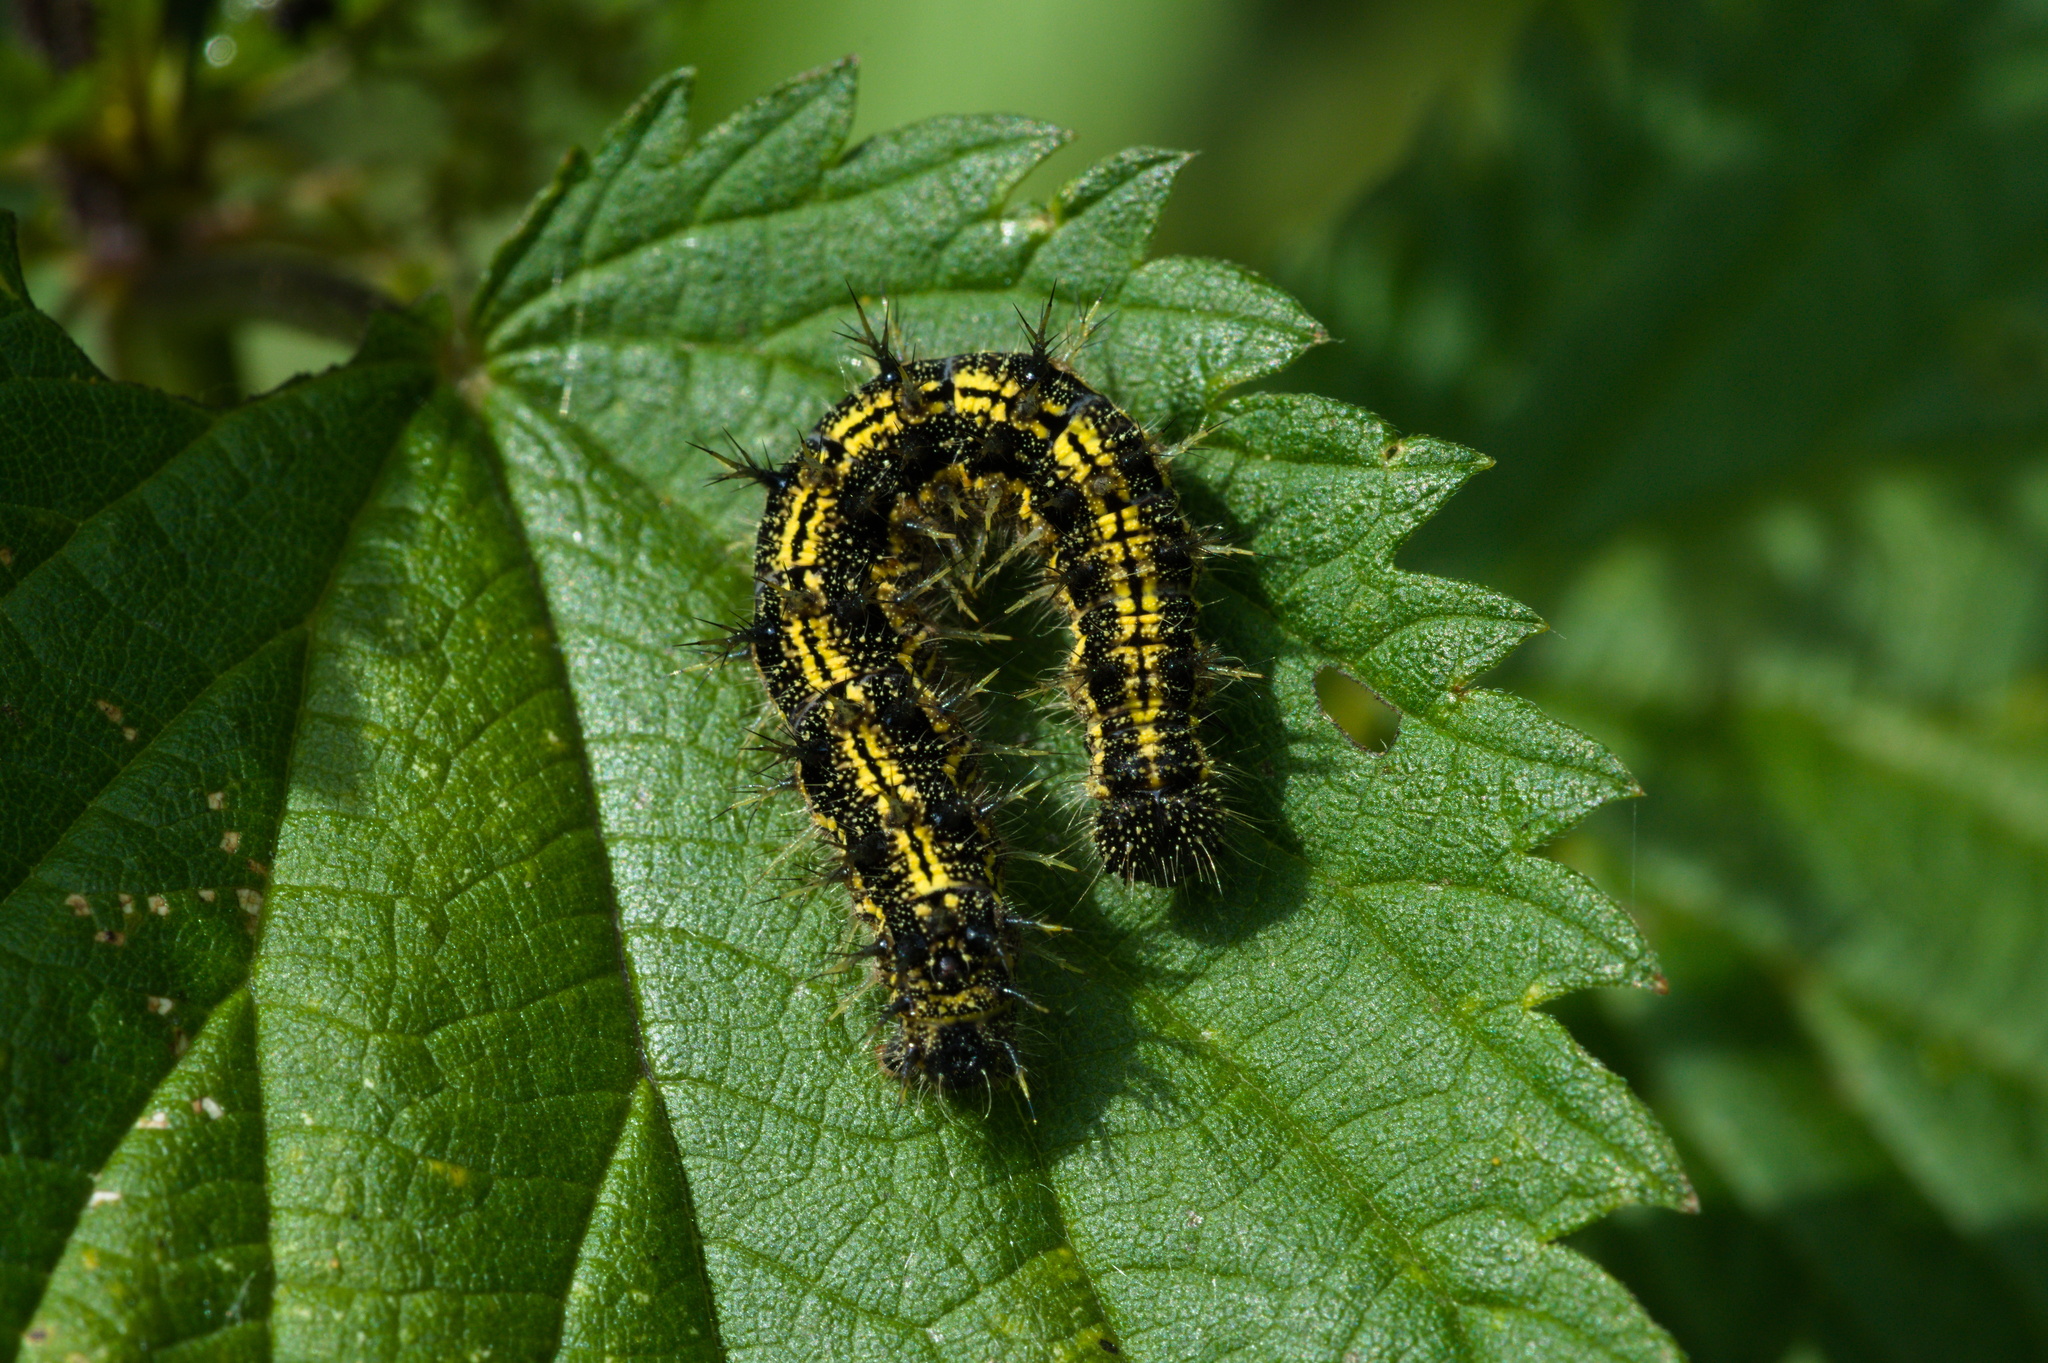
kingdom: Animalia
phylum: Arthropoda
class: Insecta
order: Lepidoptera
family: Nymphalidae
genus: Aglais
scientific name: Aglais urticae
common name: Small tortoiseshell
